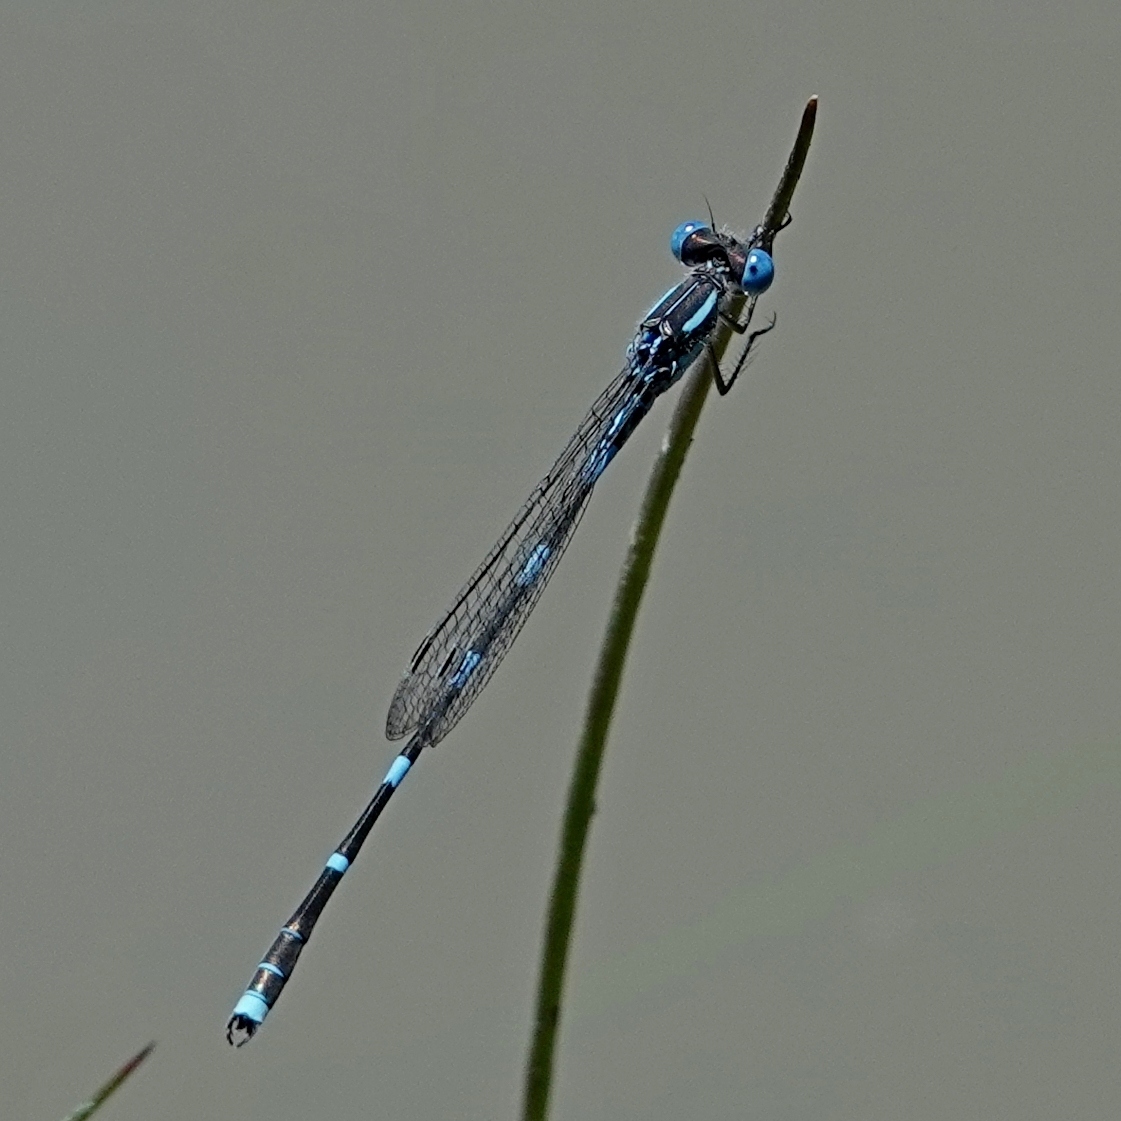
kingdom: Animalia
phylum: Arthropoda
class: Insecta
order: Odonata
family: Lestidae
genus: Austrolestes
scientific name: Austrolestes leda
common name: Wandering ringtail
